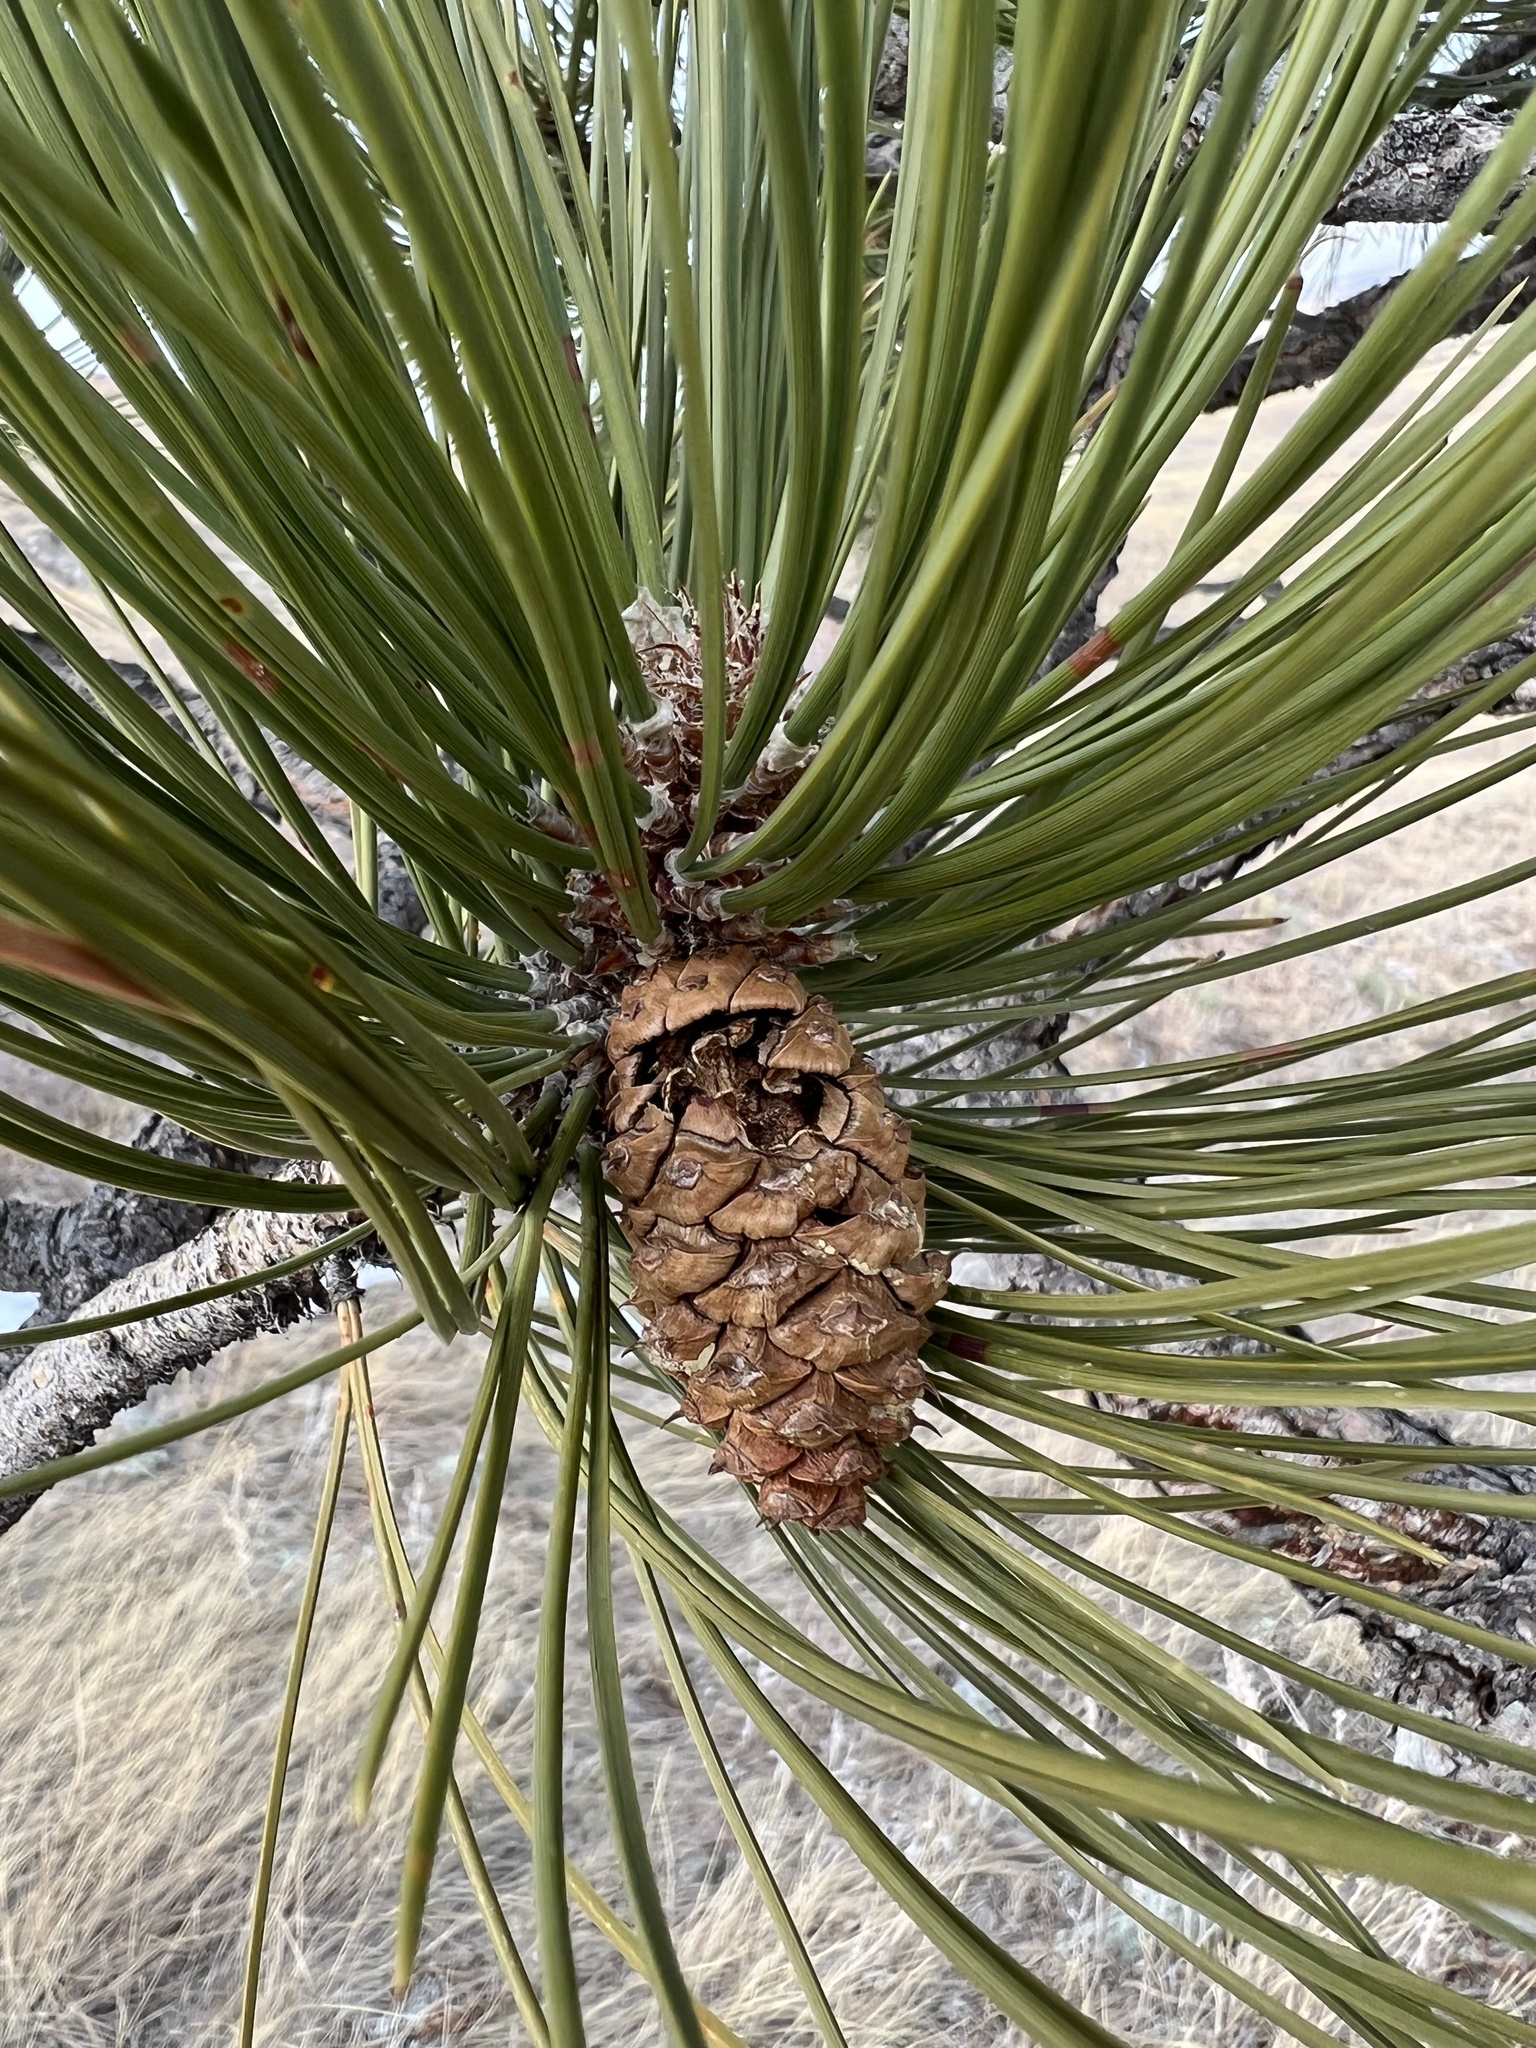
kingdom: Plantae
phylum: Tracheophyta
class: Pinopsida
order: Pinales
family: Pinaceae
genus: Pinus
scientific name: Pinus ponderosa
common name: Western yellow-pine
